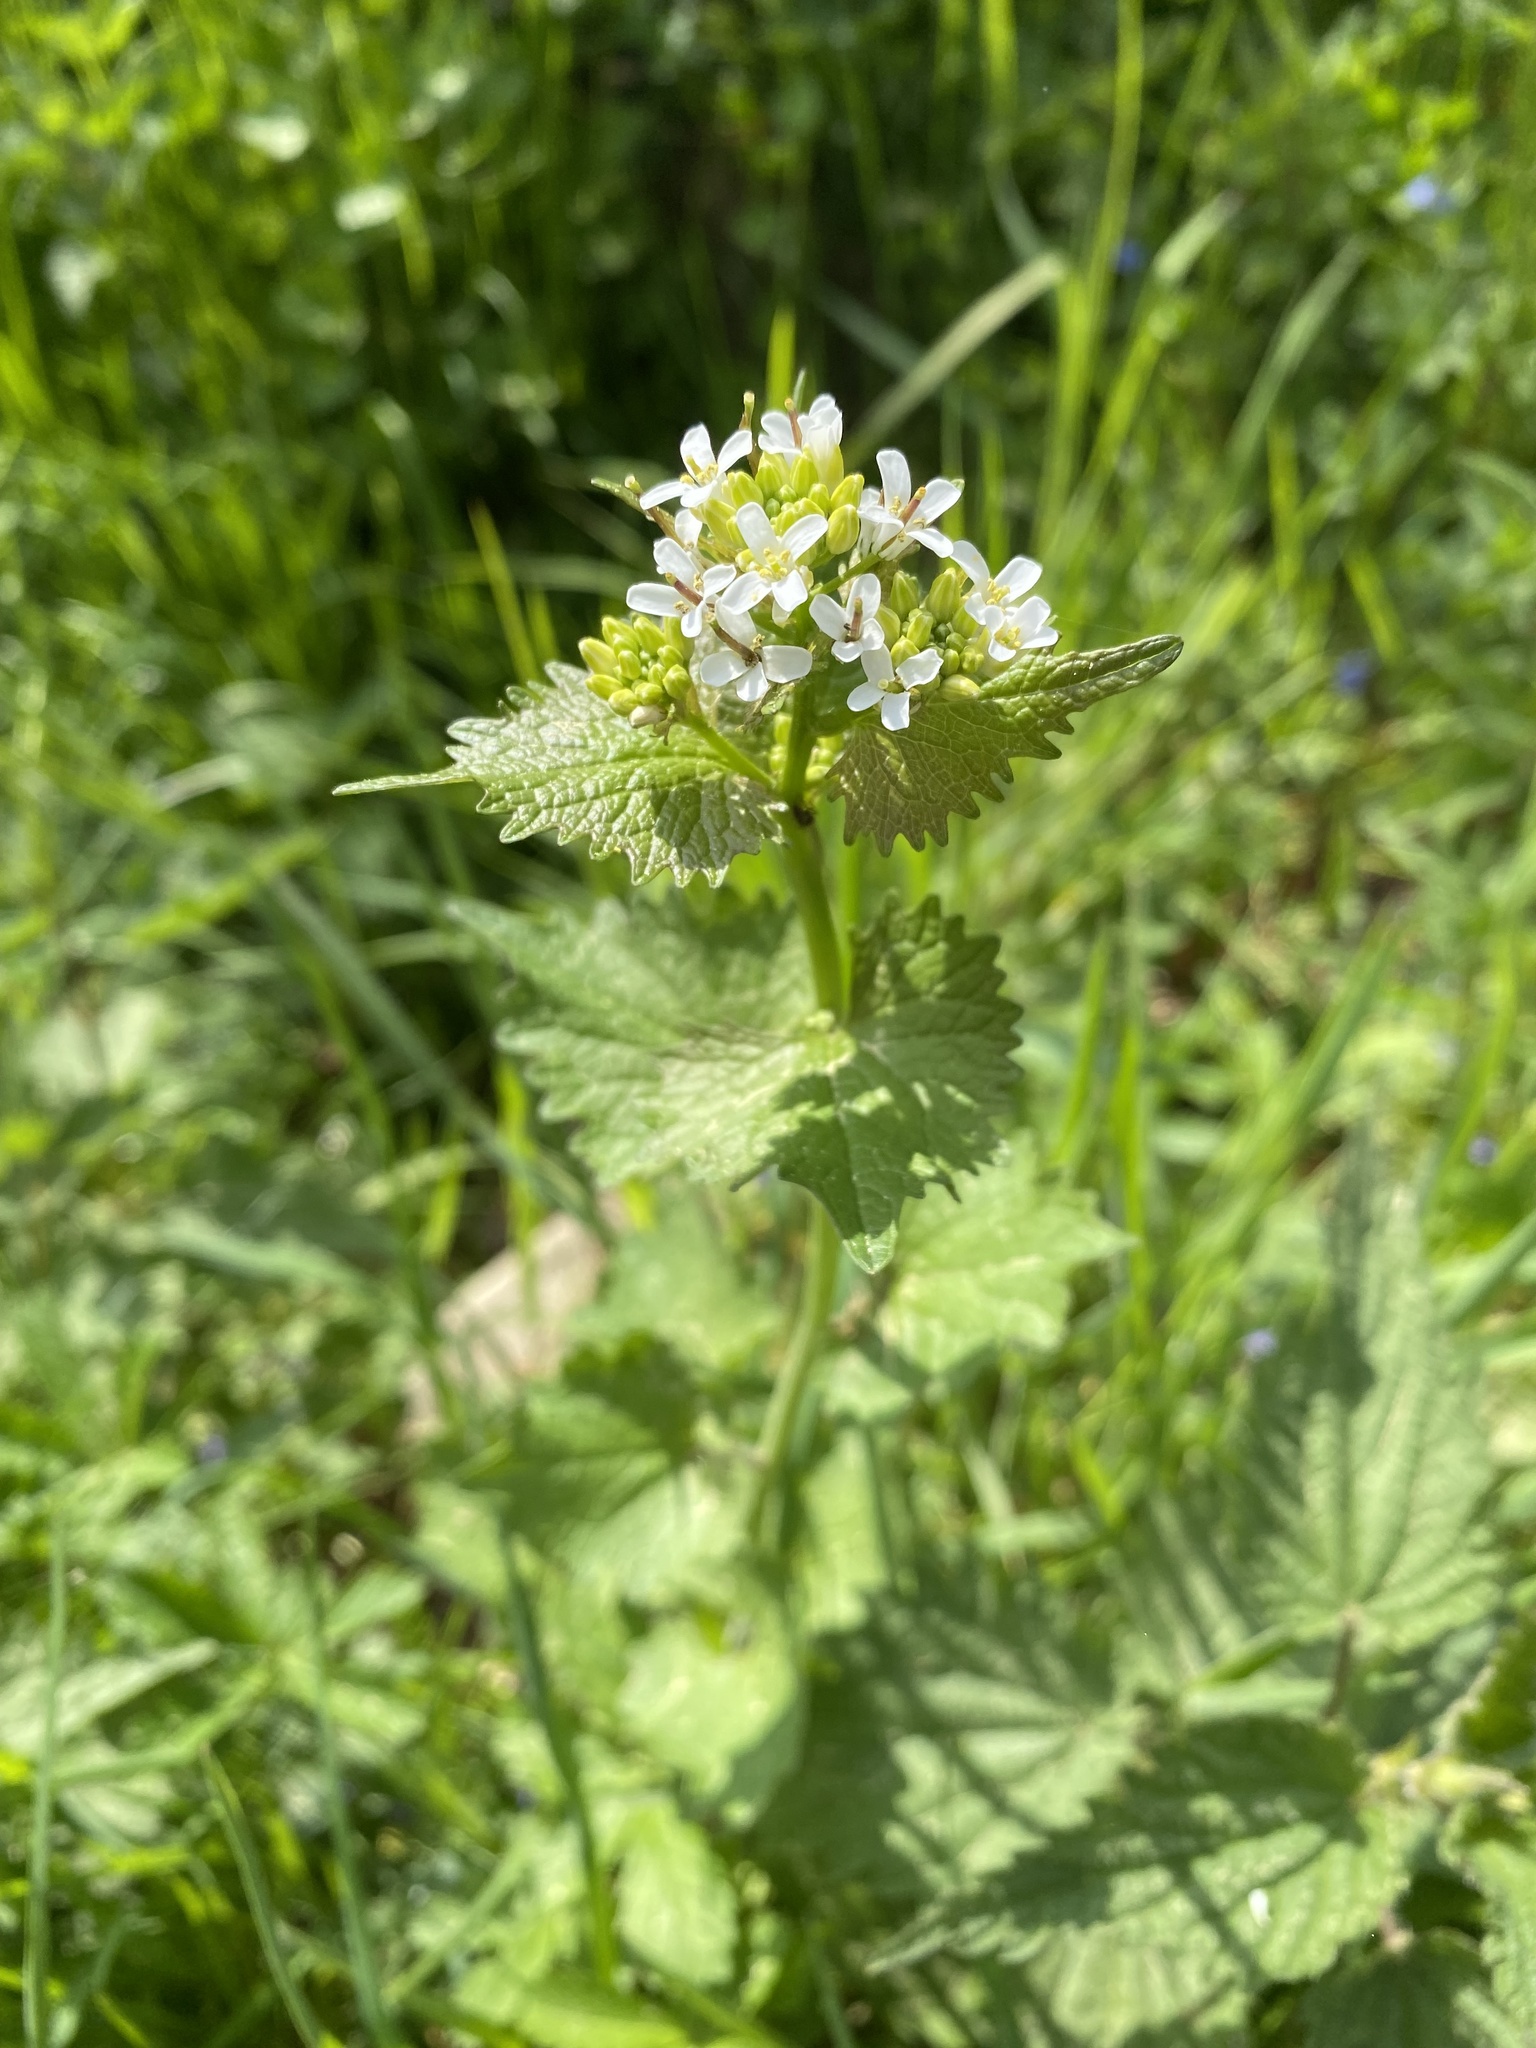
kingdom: Plantae
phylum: Tracheophyta
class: Magnoliopsida
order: Brassicales
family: Brassicaceae
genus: Alliaria
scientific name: Alliaria petiolata
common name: Garlic mustard
